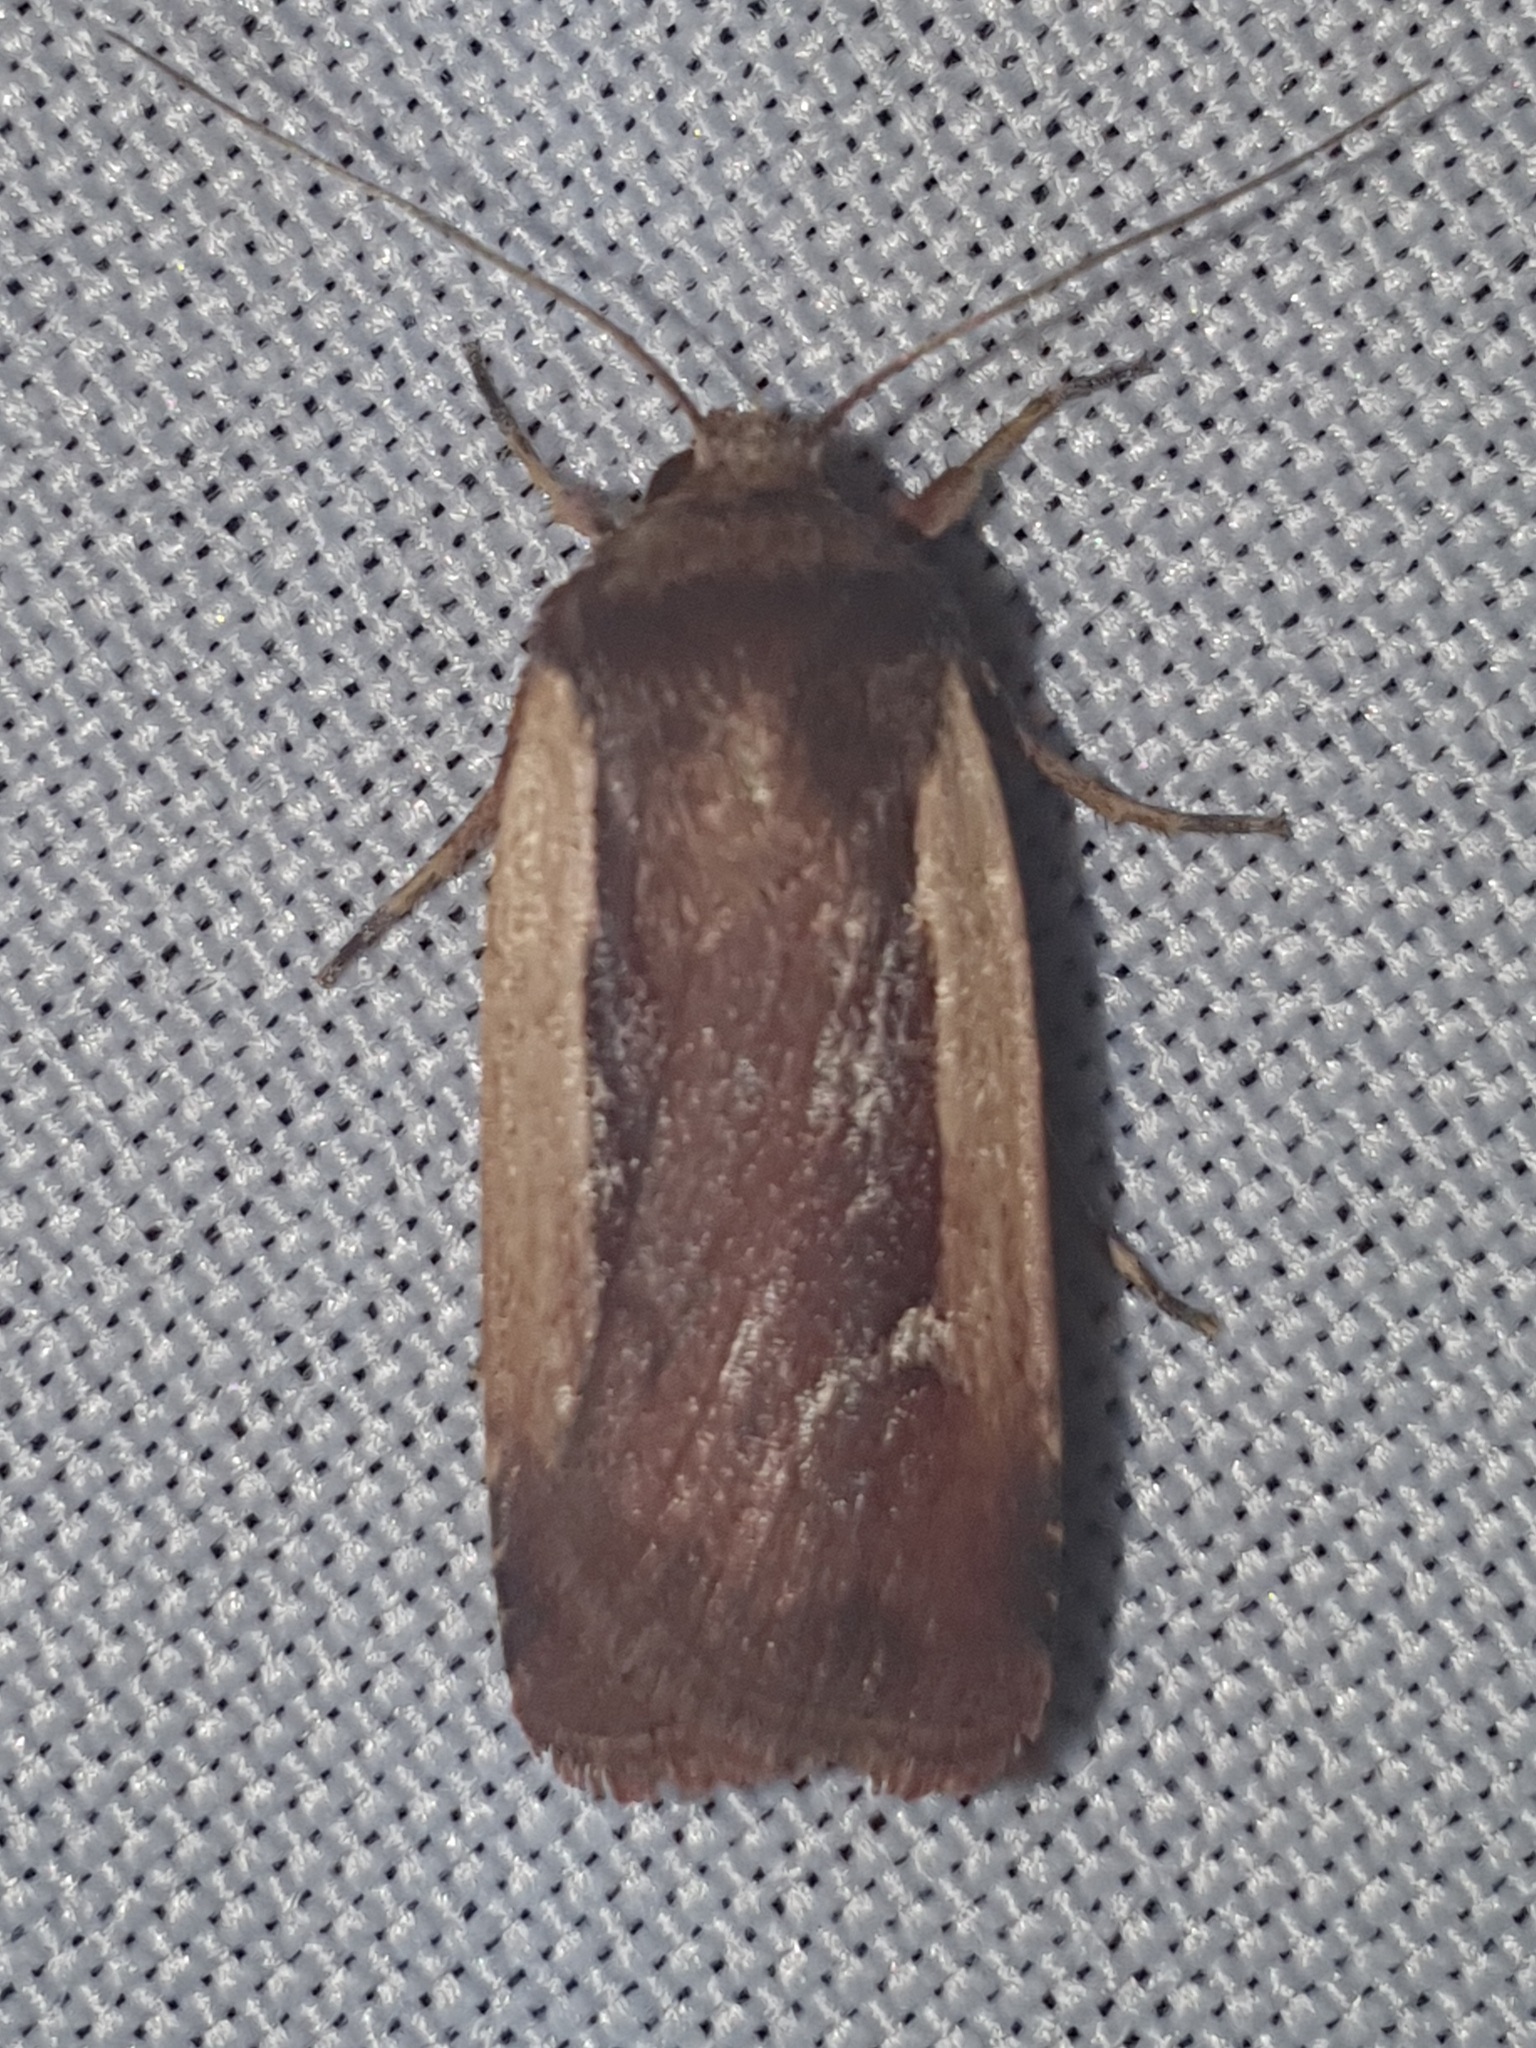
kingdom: Animalia
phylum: Arthropoda
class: Insecta
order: Lepidoptera
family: Noctuidae
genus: Ochropleura
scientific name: Ochropleura plecta
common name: Flame shoulder
